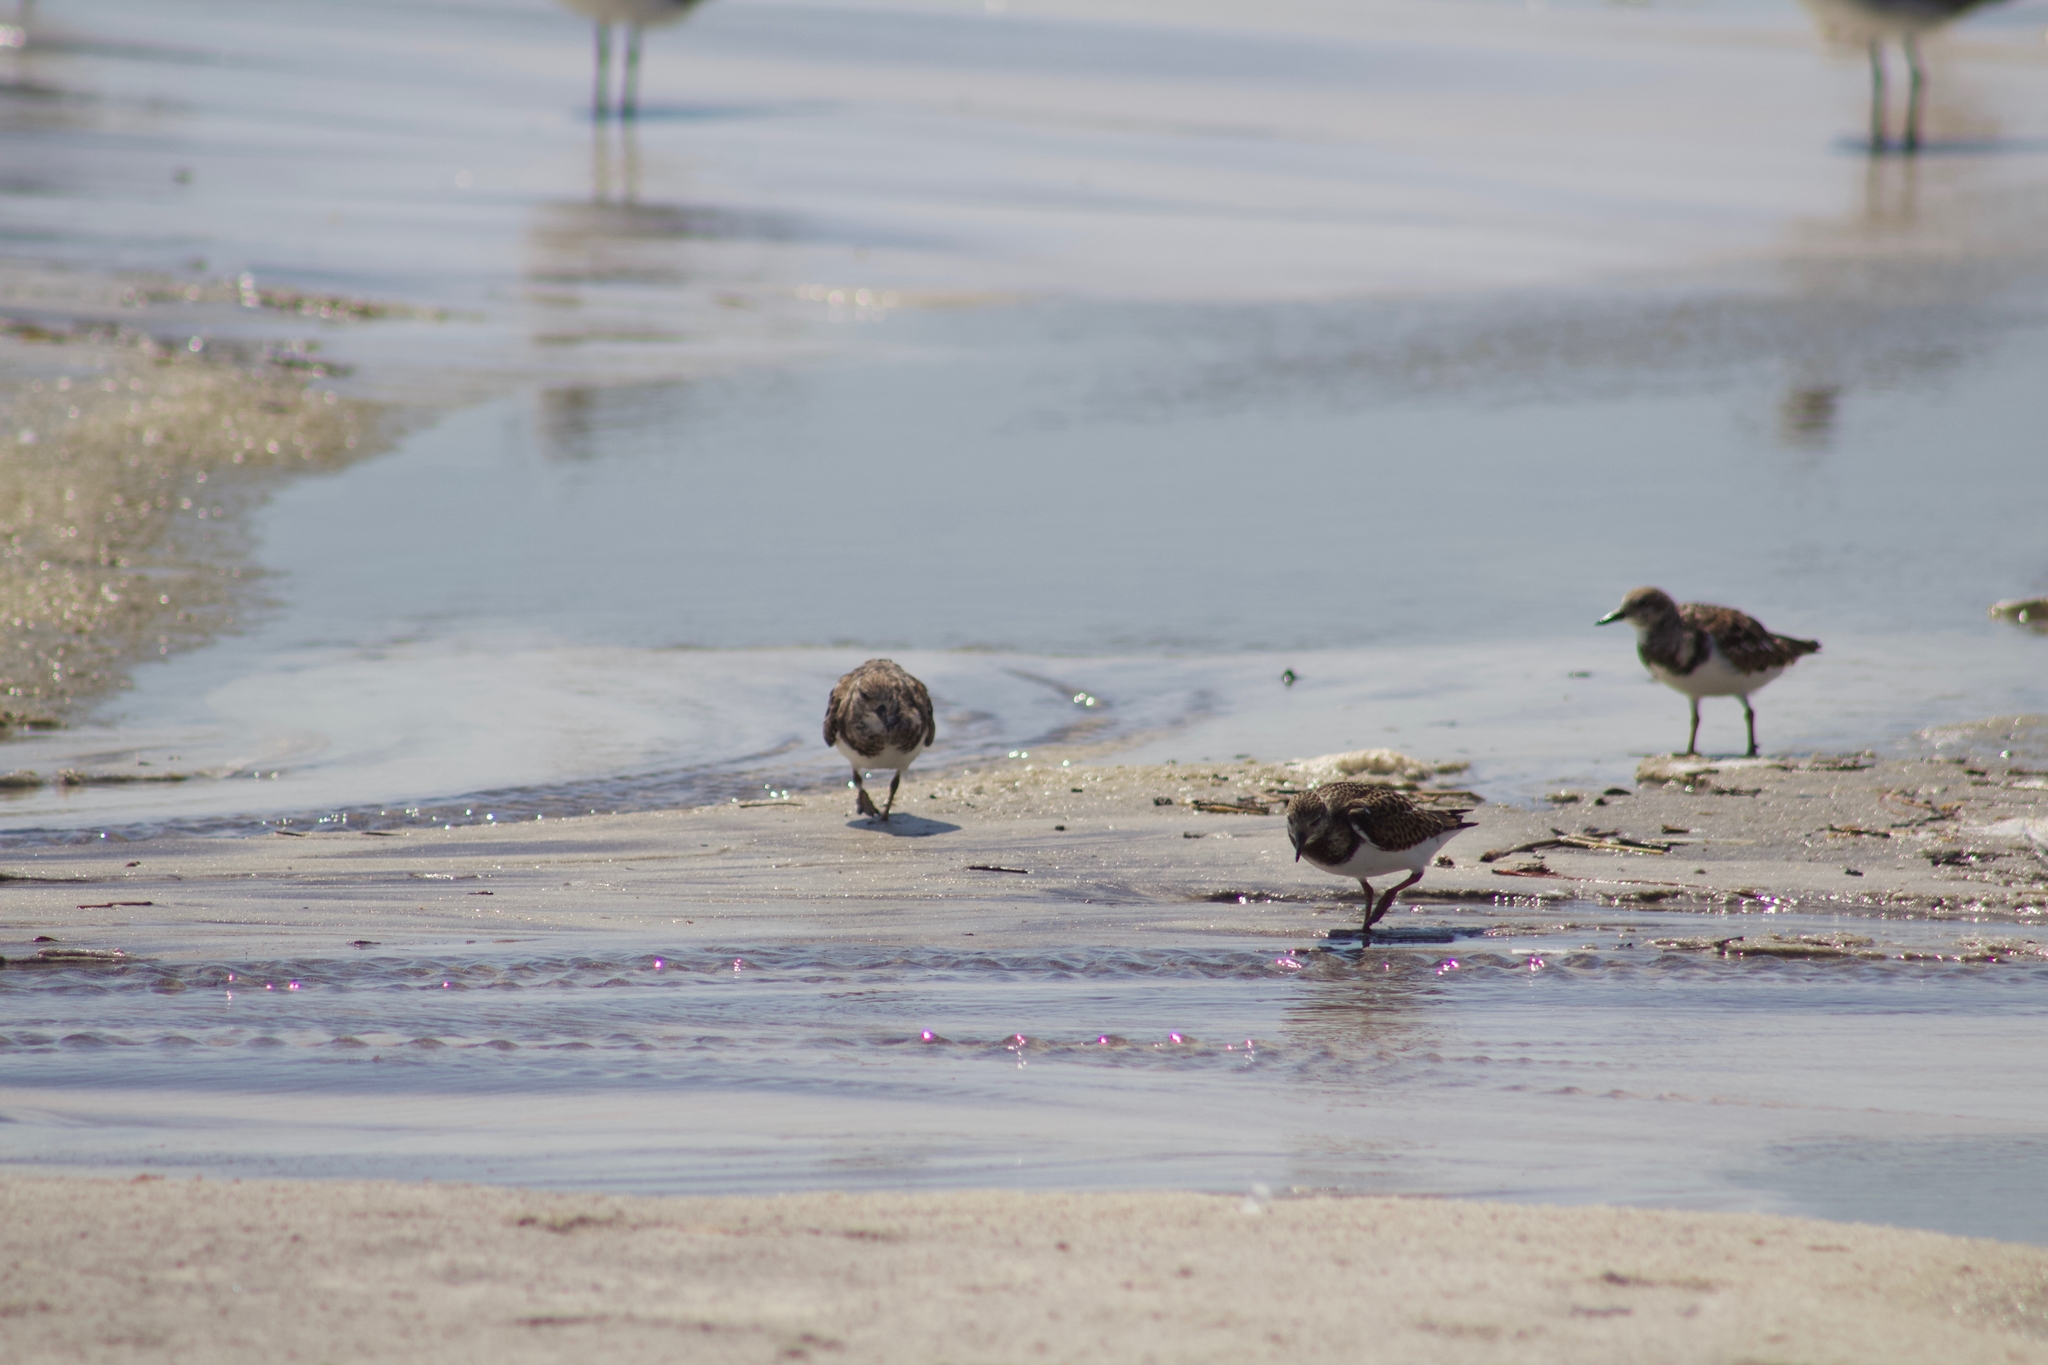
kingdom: Animalia
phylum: Chordata
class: Aves
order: Charadriiformes
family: Scolopacidae
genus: Arenaria
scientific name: Arenaria interpres
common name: Ruddy turnstone
